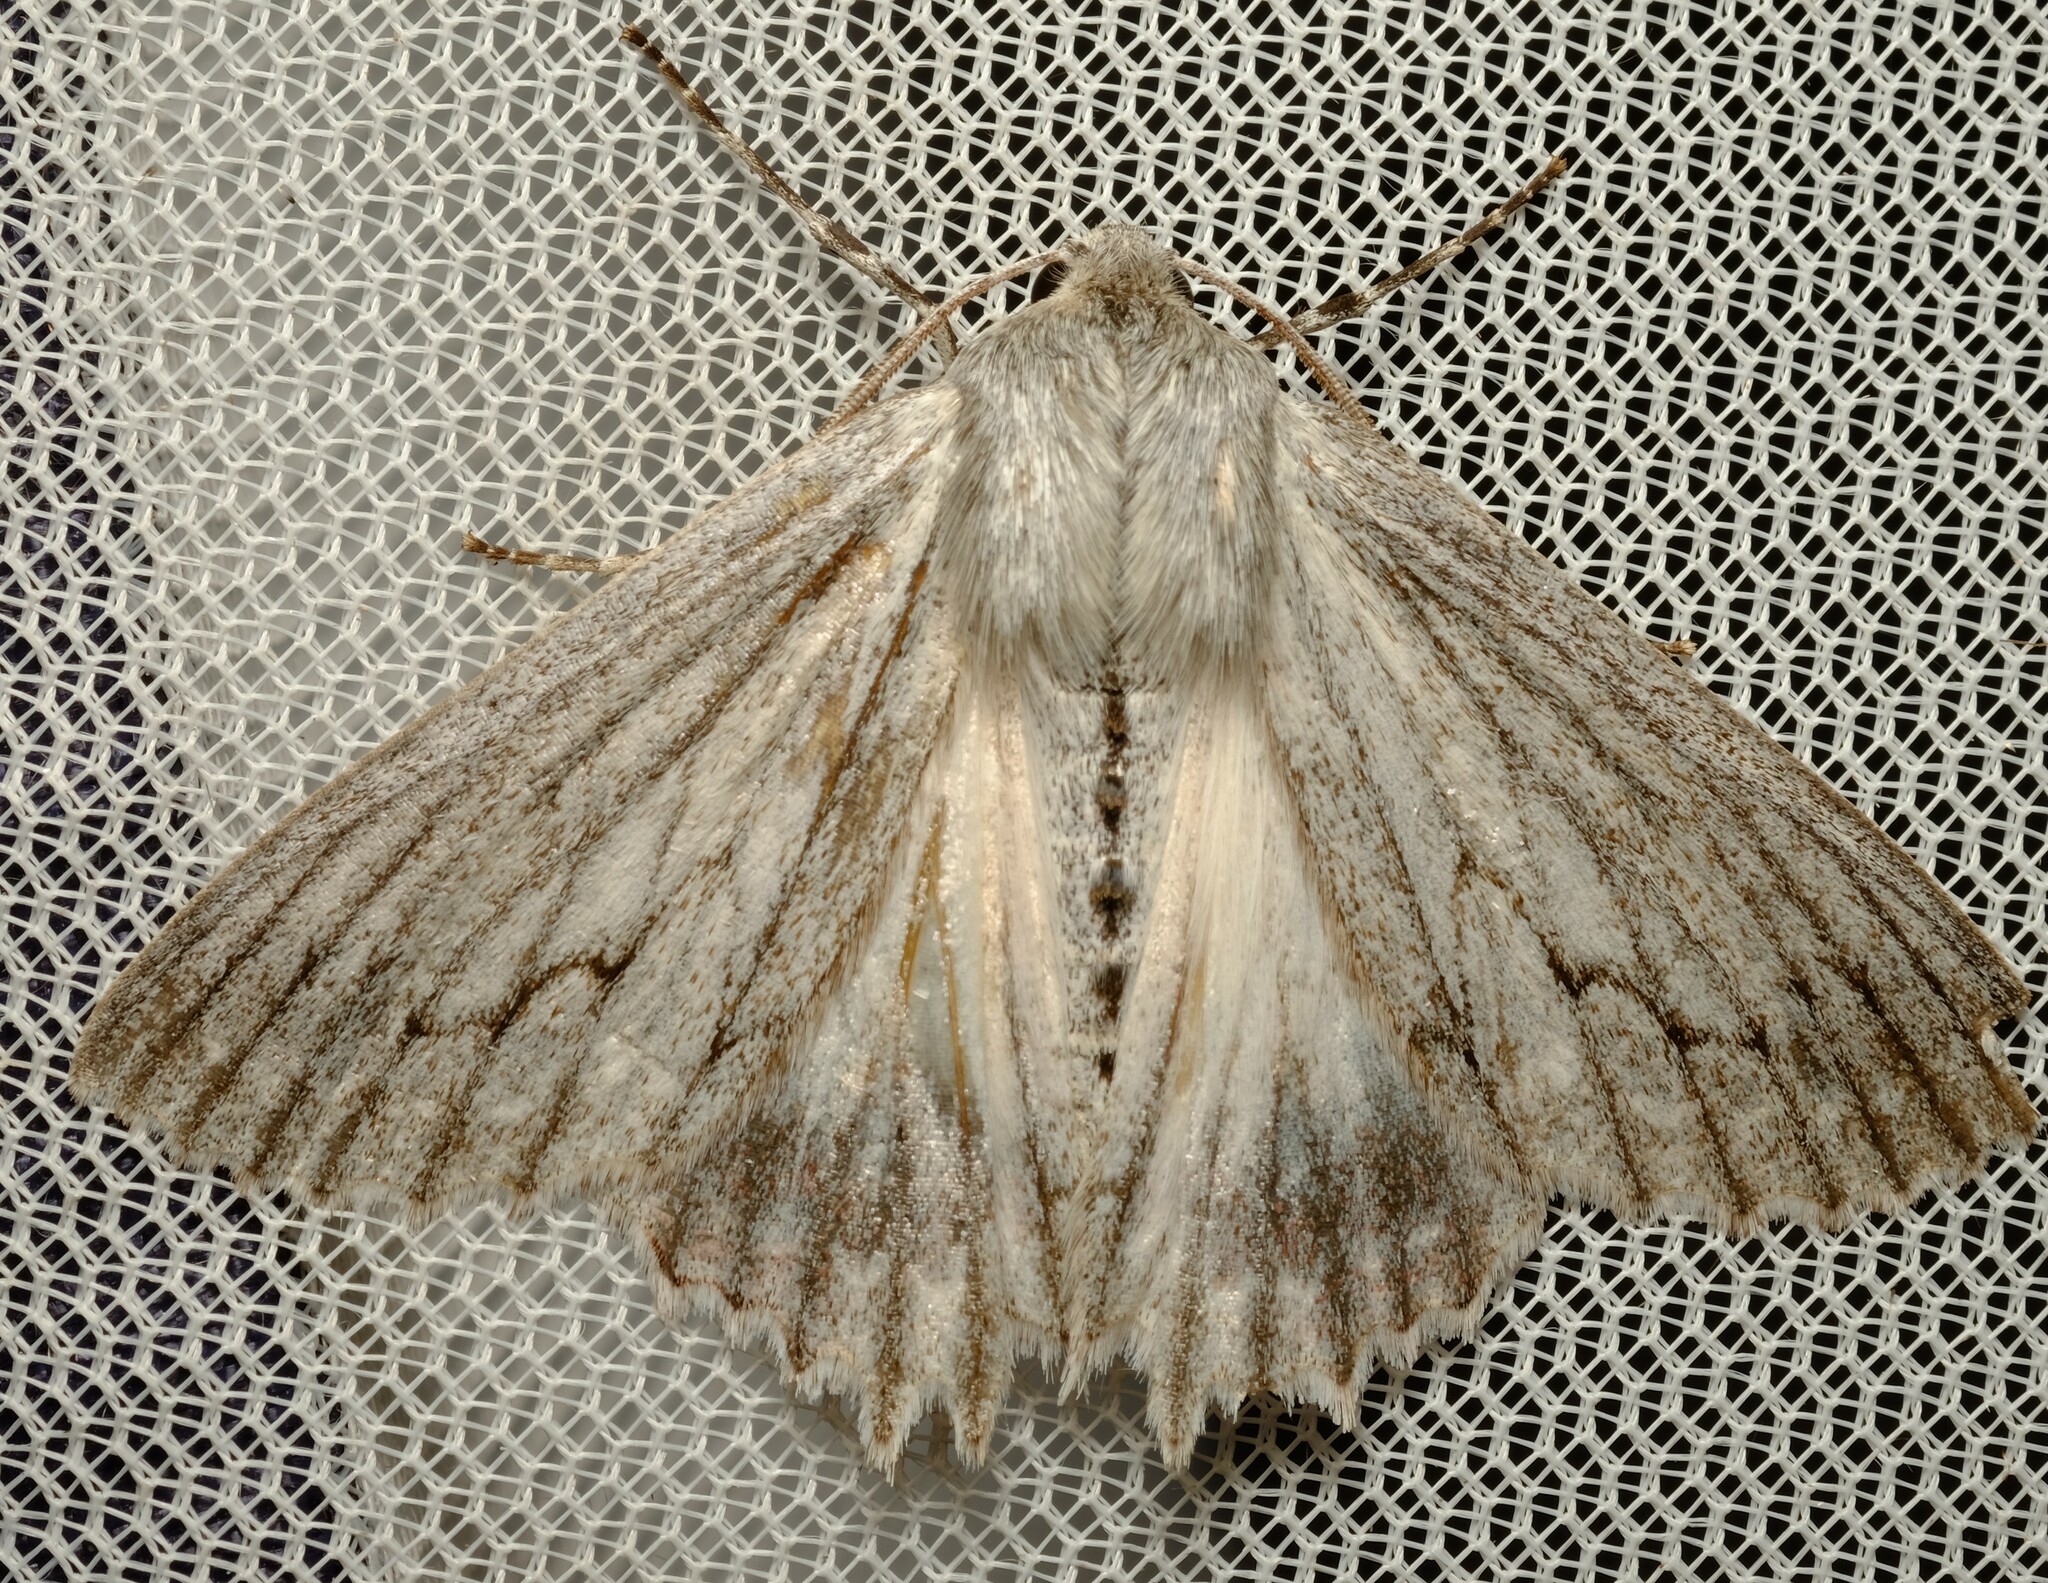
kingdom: Animalia
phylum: Arthropoda
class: Insecta
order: Lepidoptera
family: Geometridae
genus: Paraterpna
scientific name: Paraterpna harrisoni
